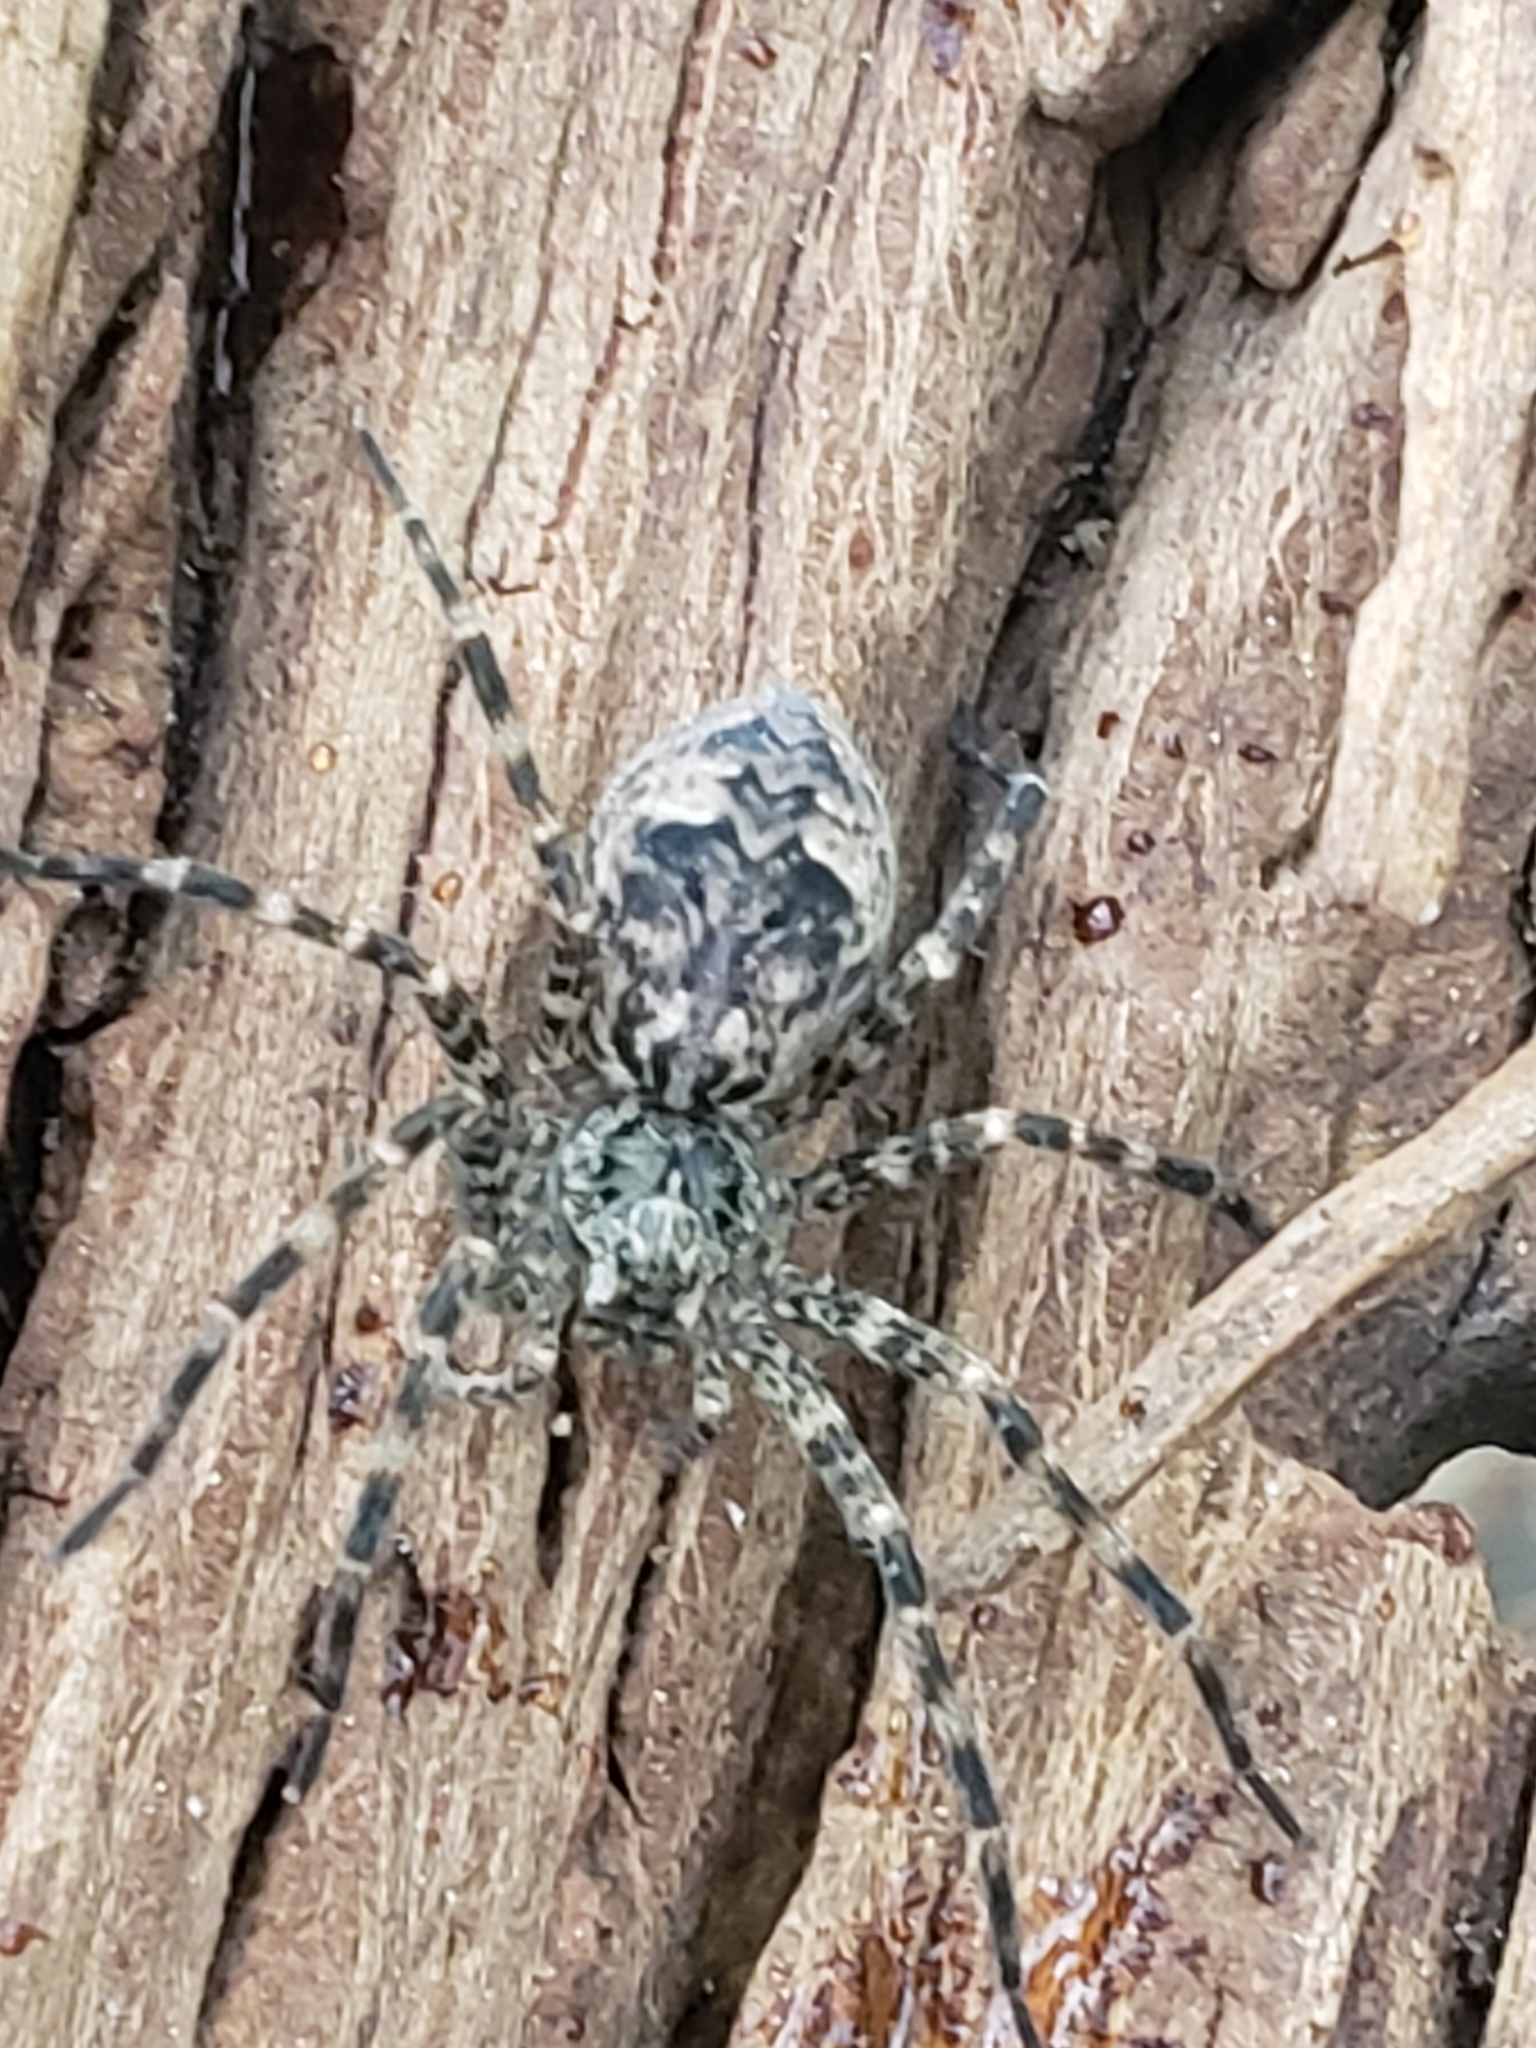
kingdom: Animalia
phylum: Arthropoda
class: Arachnida
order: Araneae
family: Pisauridae
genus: Dolomedes
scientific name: Dolomedes tenebrosus
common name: Dark fishing spider
